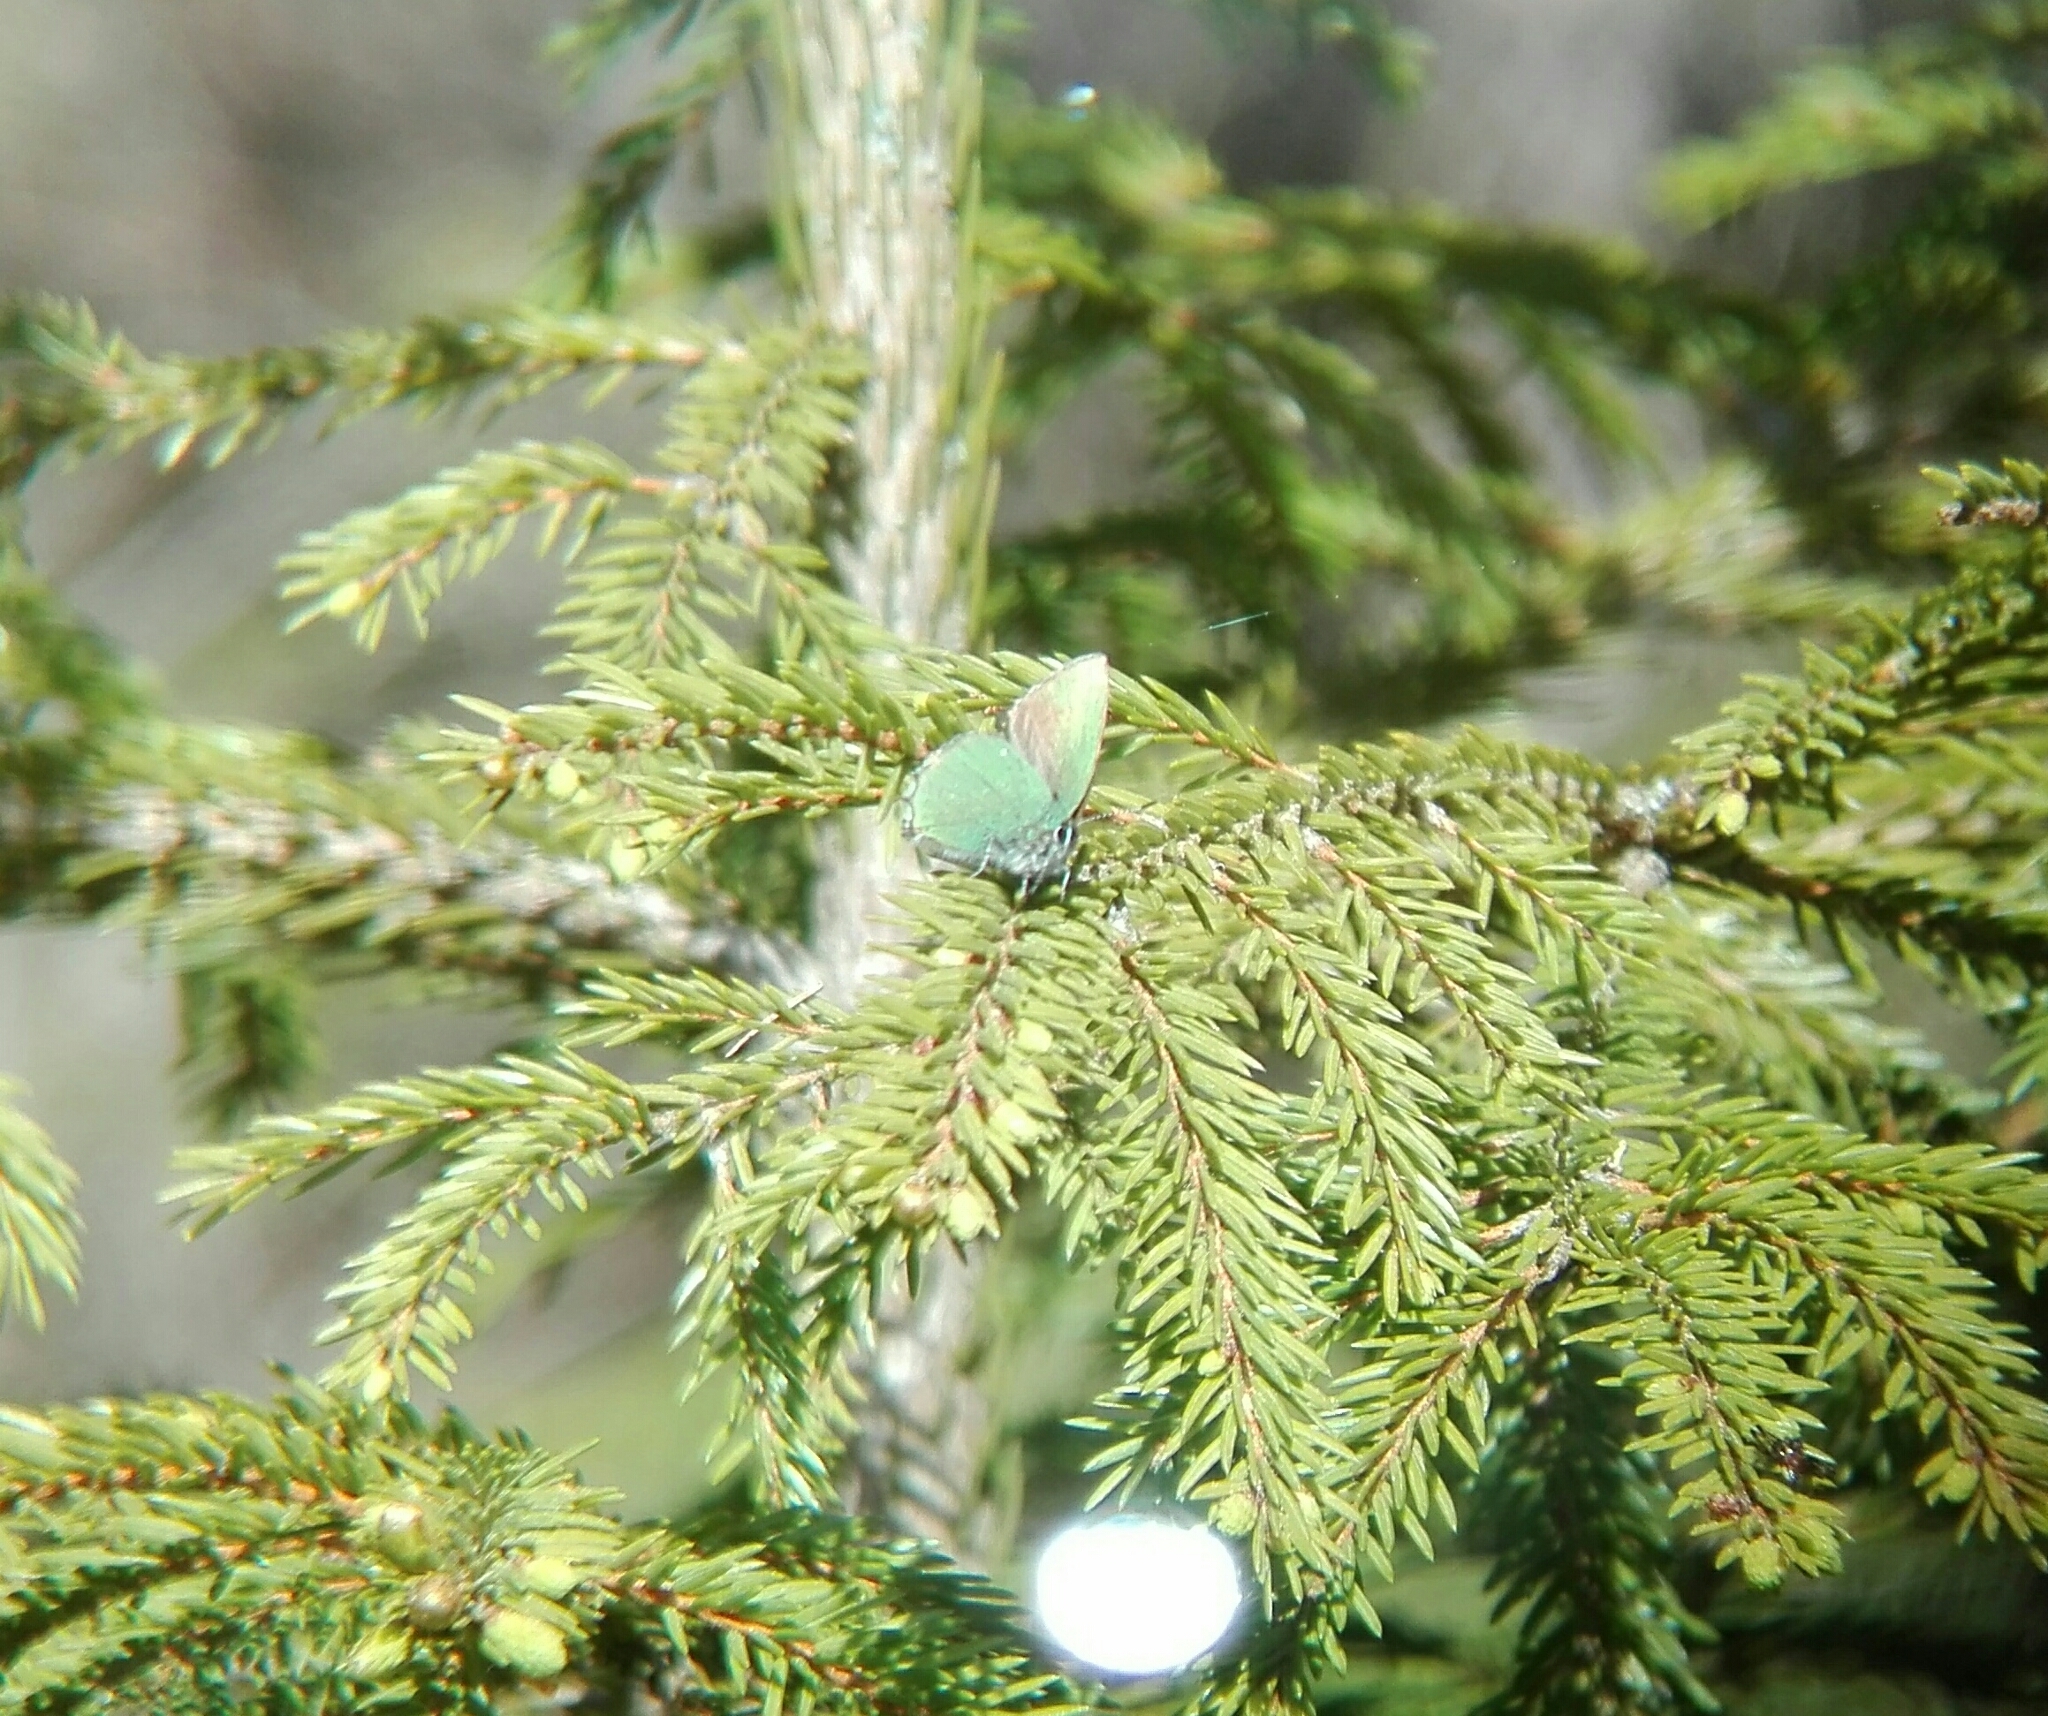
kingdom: Animalia
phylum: Arthropoda
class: Insecta
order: Lepidoptera
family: Lycaenidae
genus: Callophrys
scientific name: Callophrys rubi
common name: Green hairstreak
